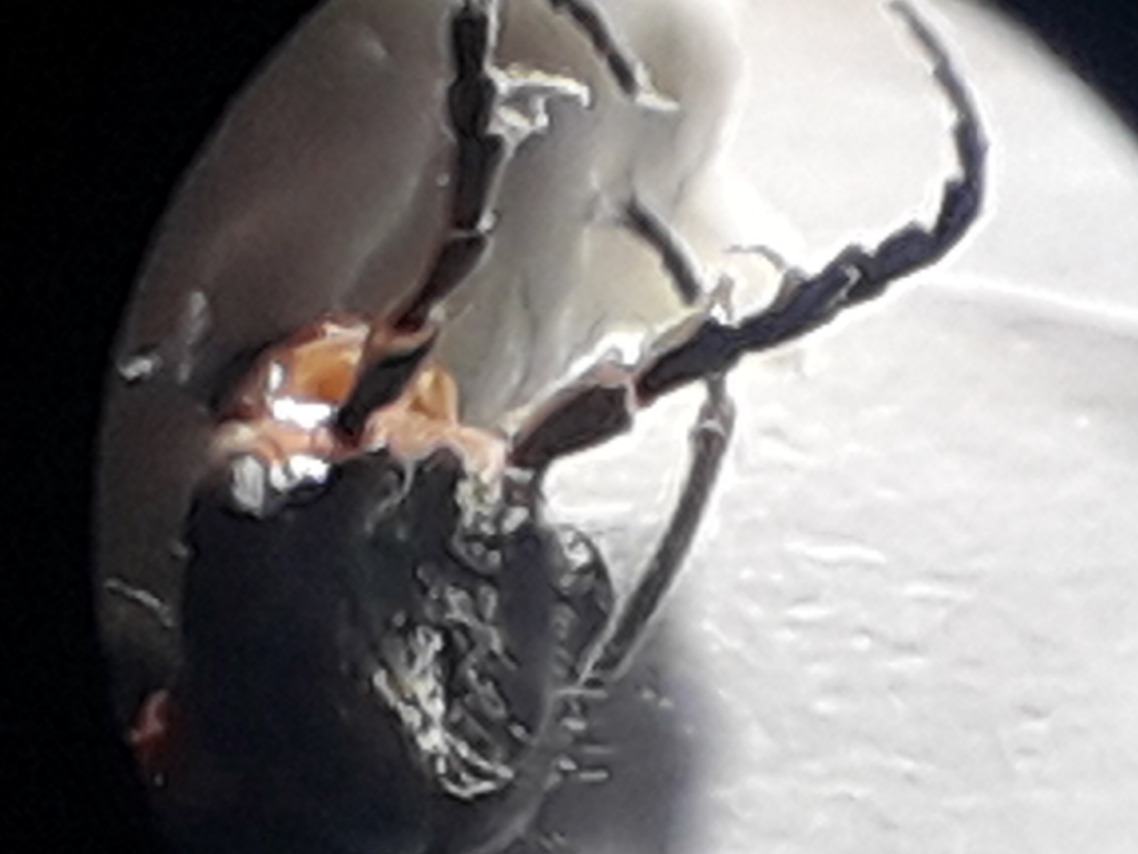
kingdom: Animalia
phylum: Arthropoda
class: Insecta
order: Coleoptera
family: Melyridae
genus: Malachius
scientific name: Malachius aeneus
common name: Scarlet malachite beetle
